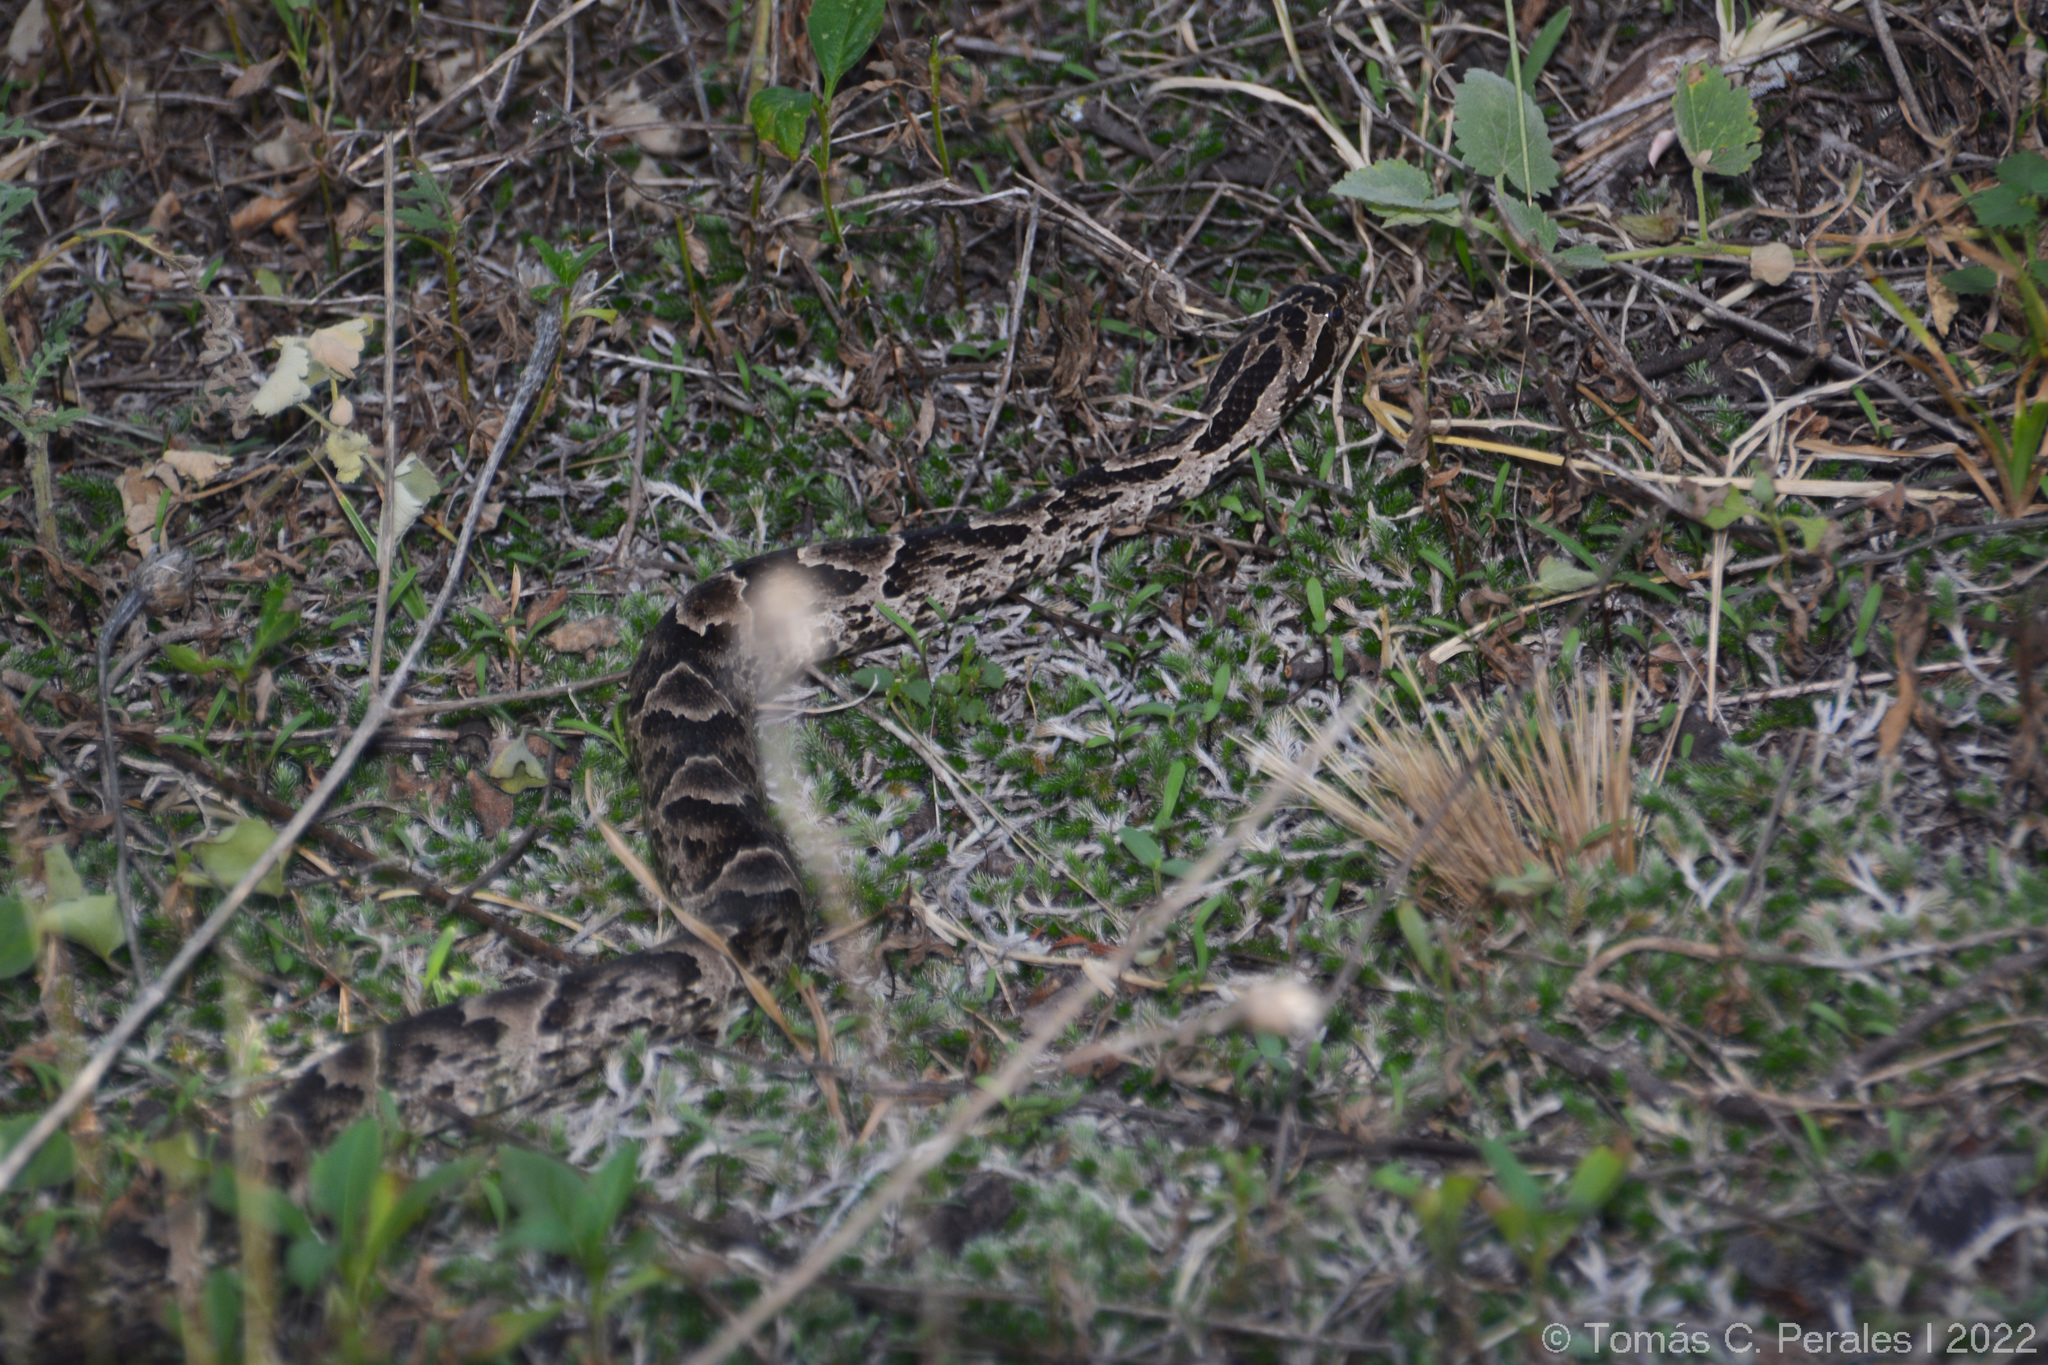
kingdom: Animalia
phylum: Chordata
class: Squamata
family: Colubridae
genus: Xenodon
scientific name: Xenodon merremii
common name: Wagler's snake
